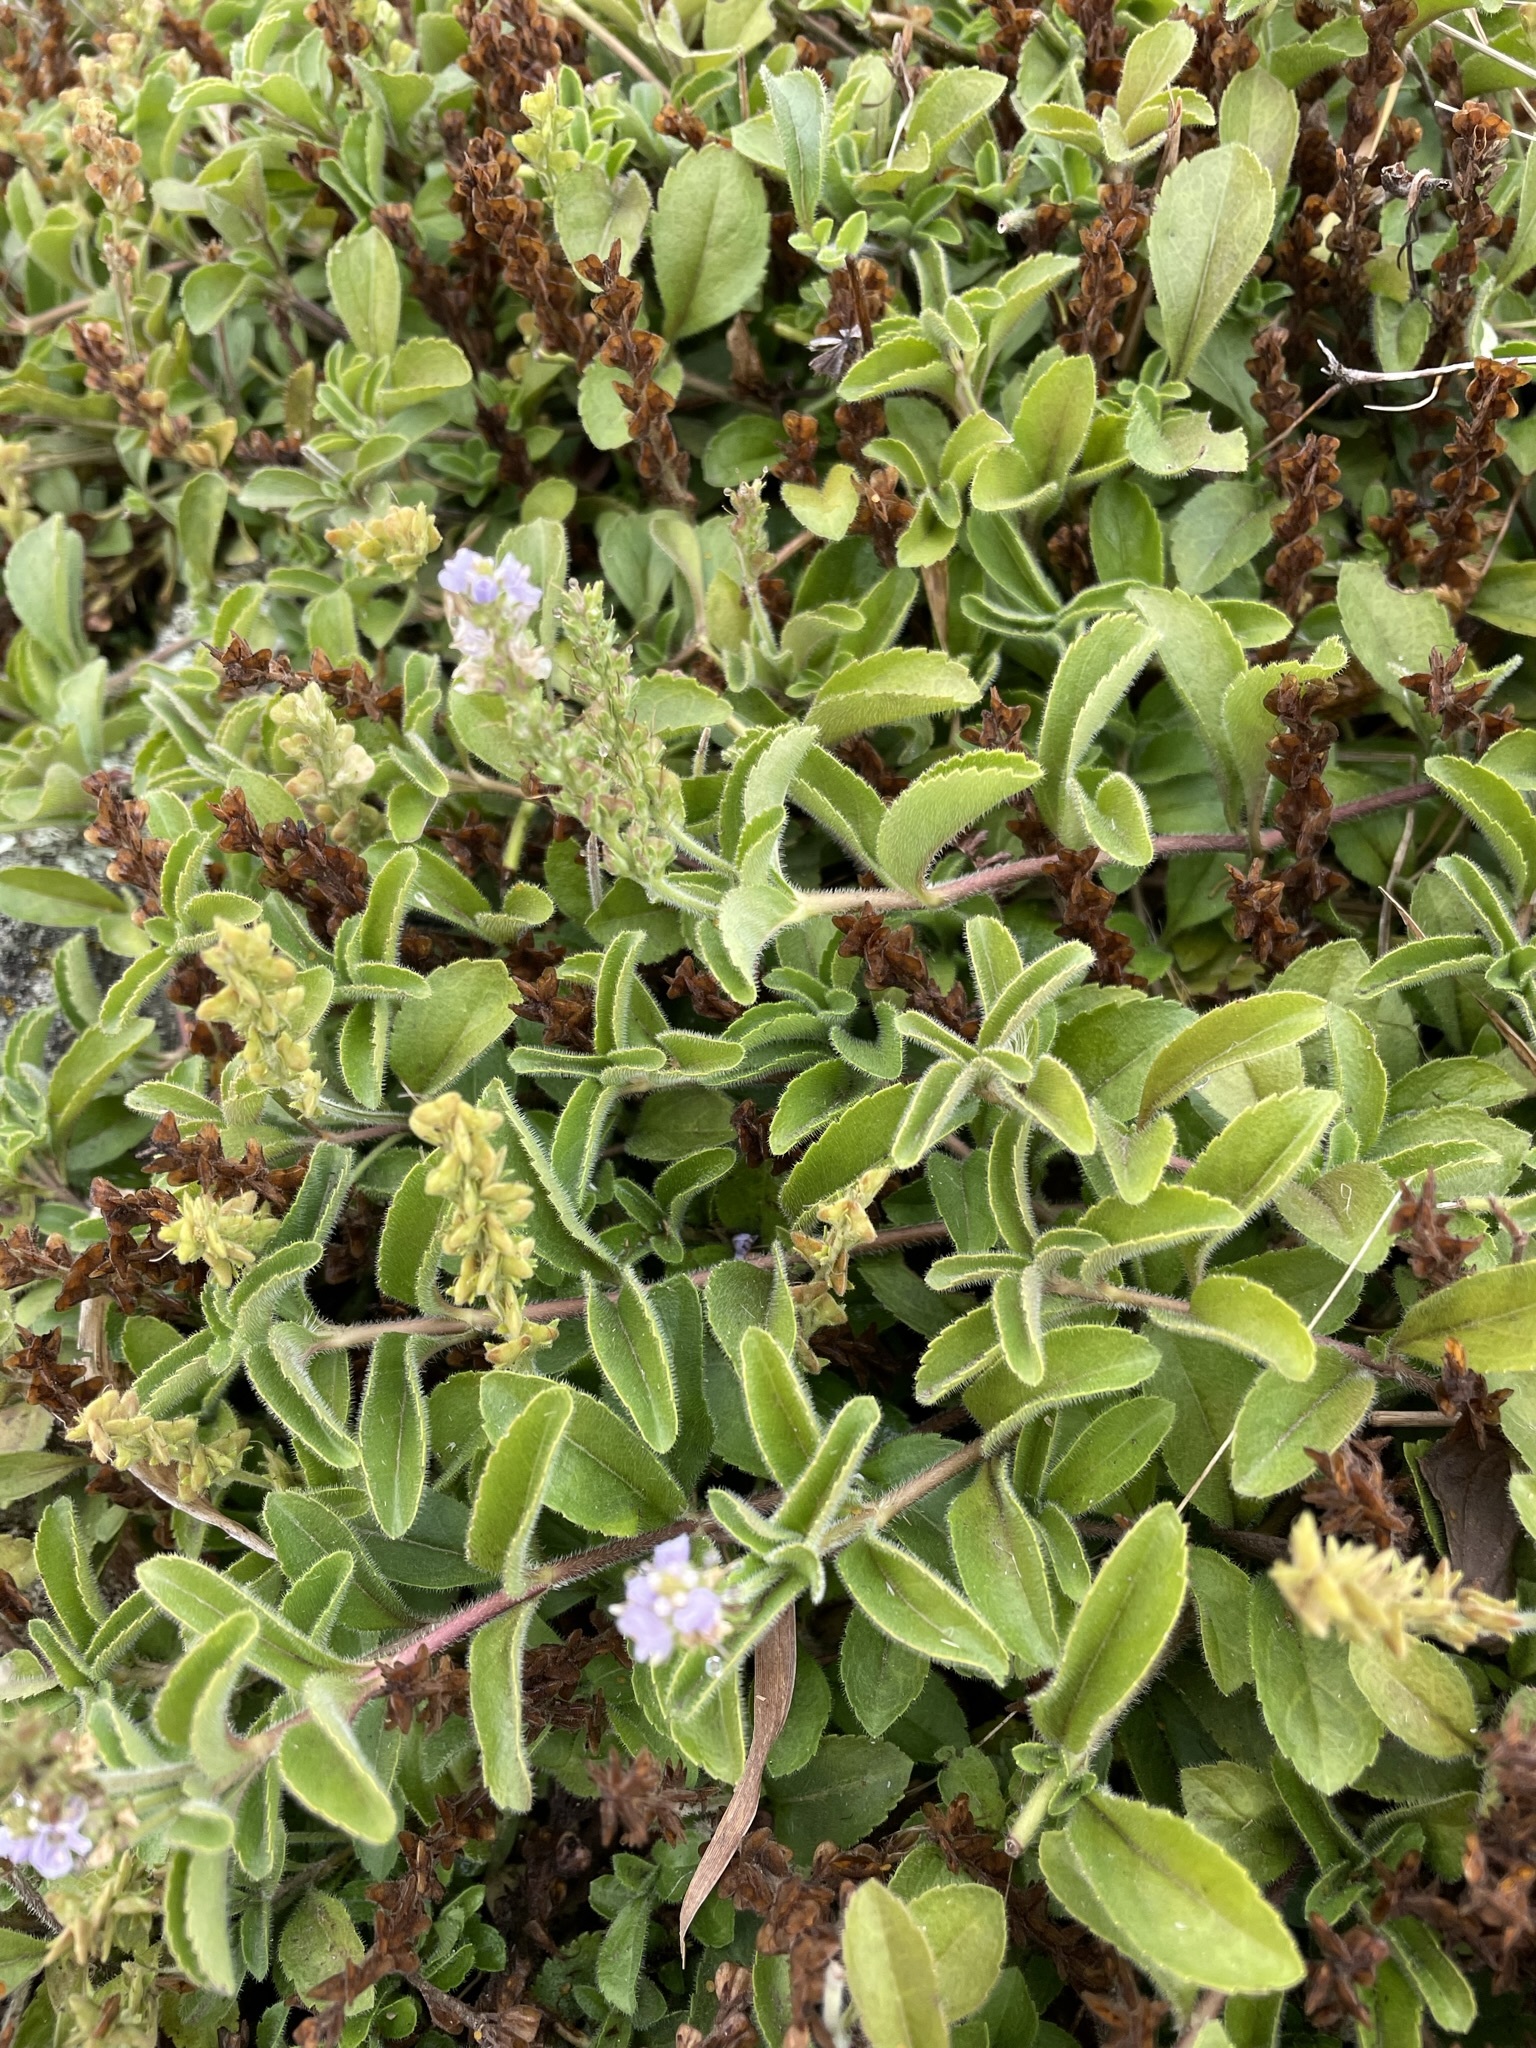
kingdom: Plantae
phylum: Tracheophyta
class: Magnoliopsida
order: Lamiales
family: Plantaginaceae
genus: Veronica
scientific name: Veronica officinalis
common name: Common speedwell
